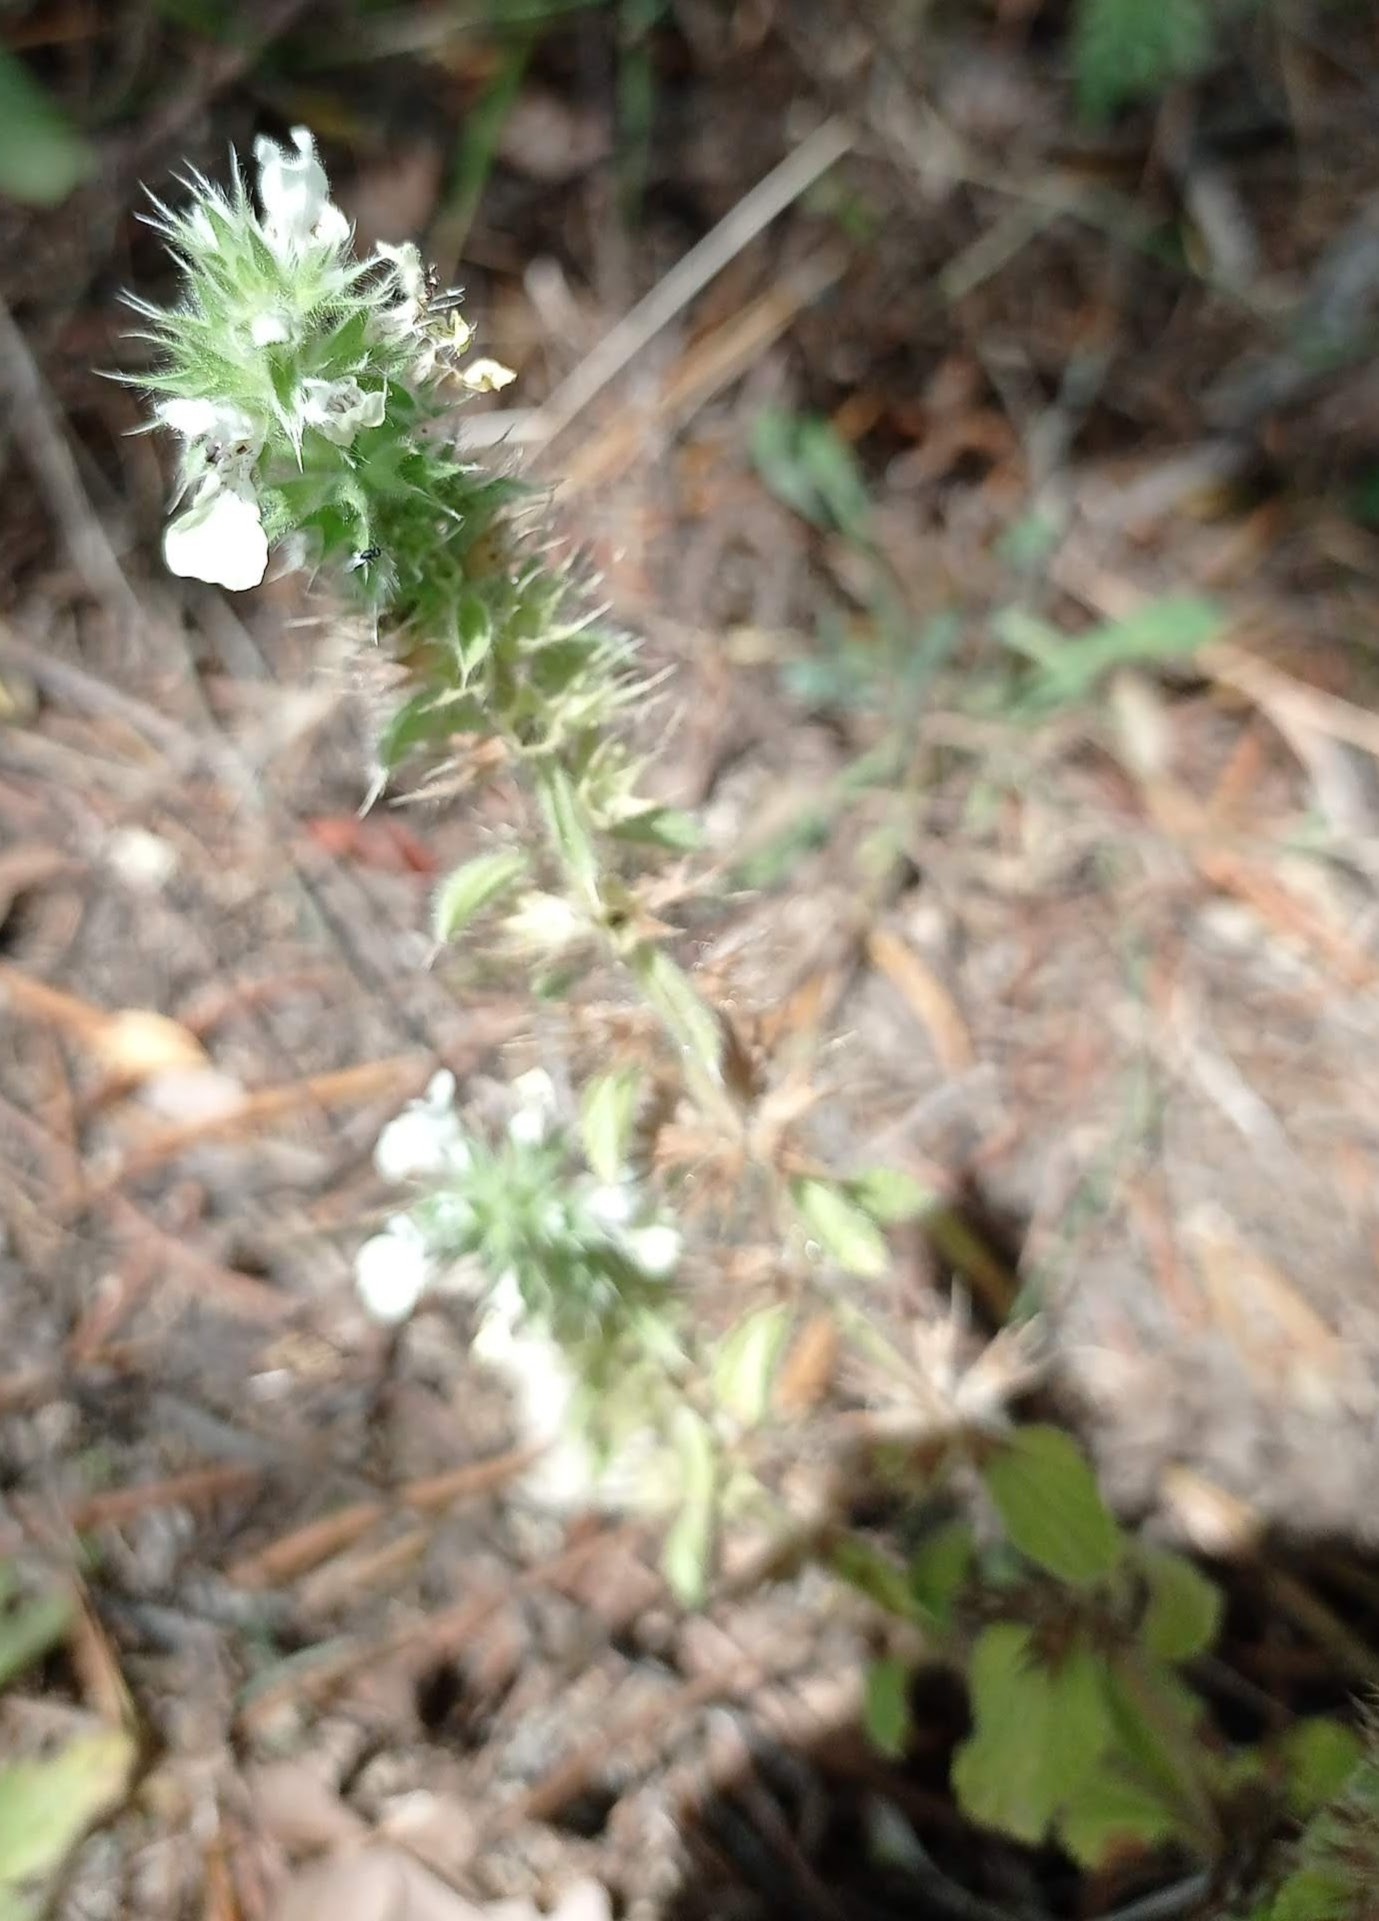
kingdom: Plantae
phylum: Tracheophyta
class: Magnoliopsida
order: Lamiales
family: Lamiaceae
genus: Stachys
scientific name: Stachys ocymastrum
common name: Italian hedgenettle
